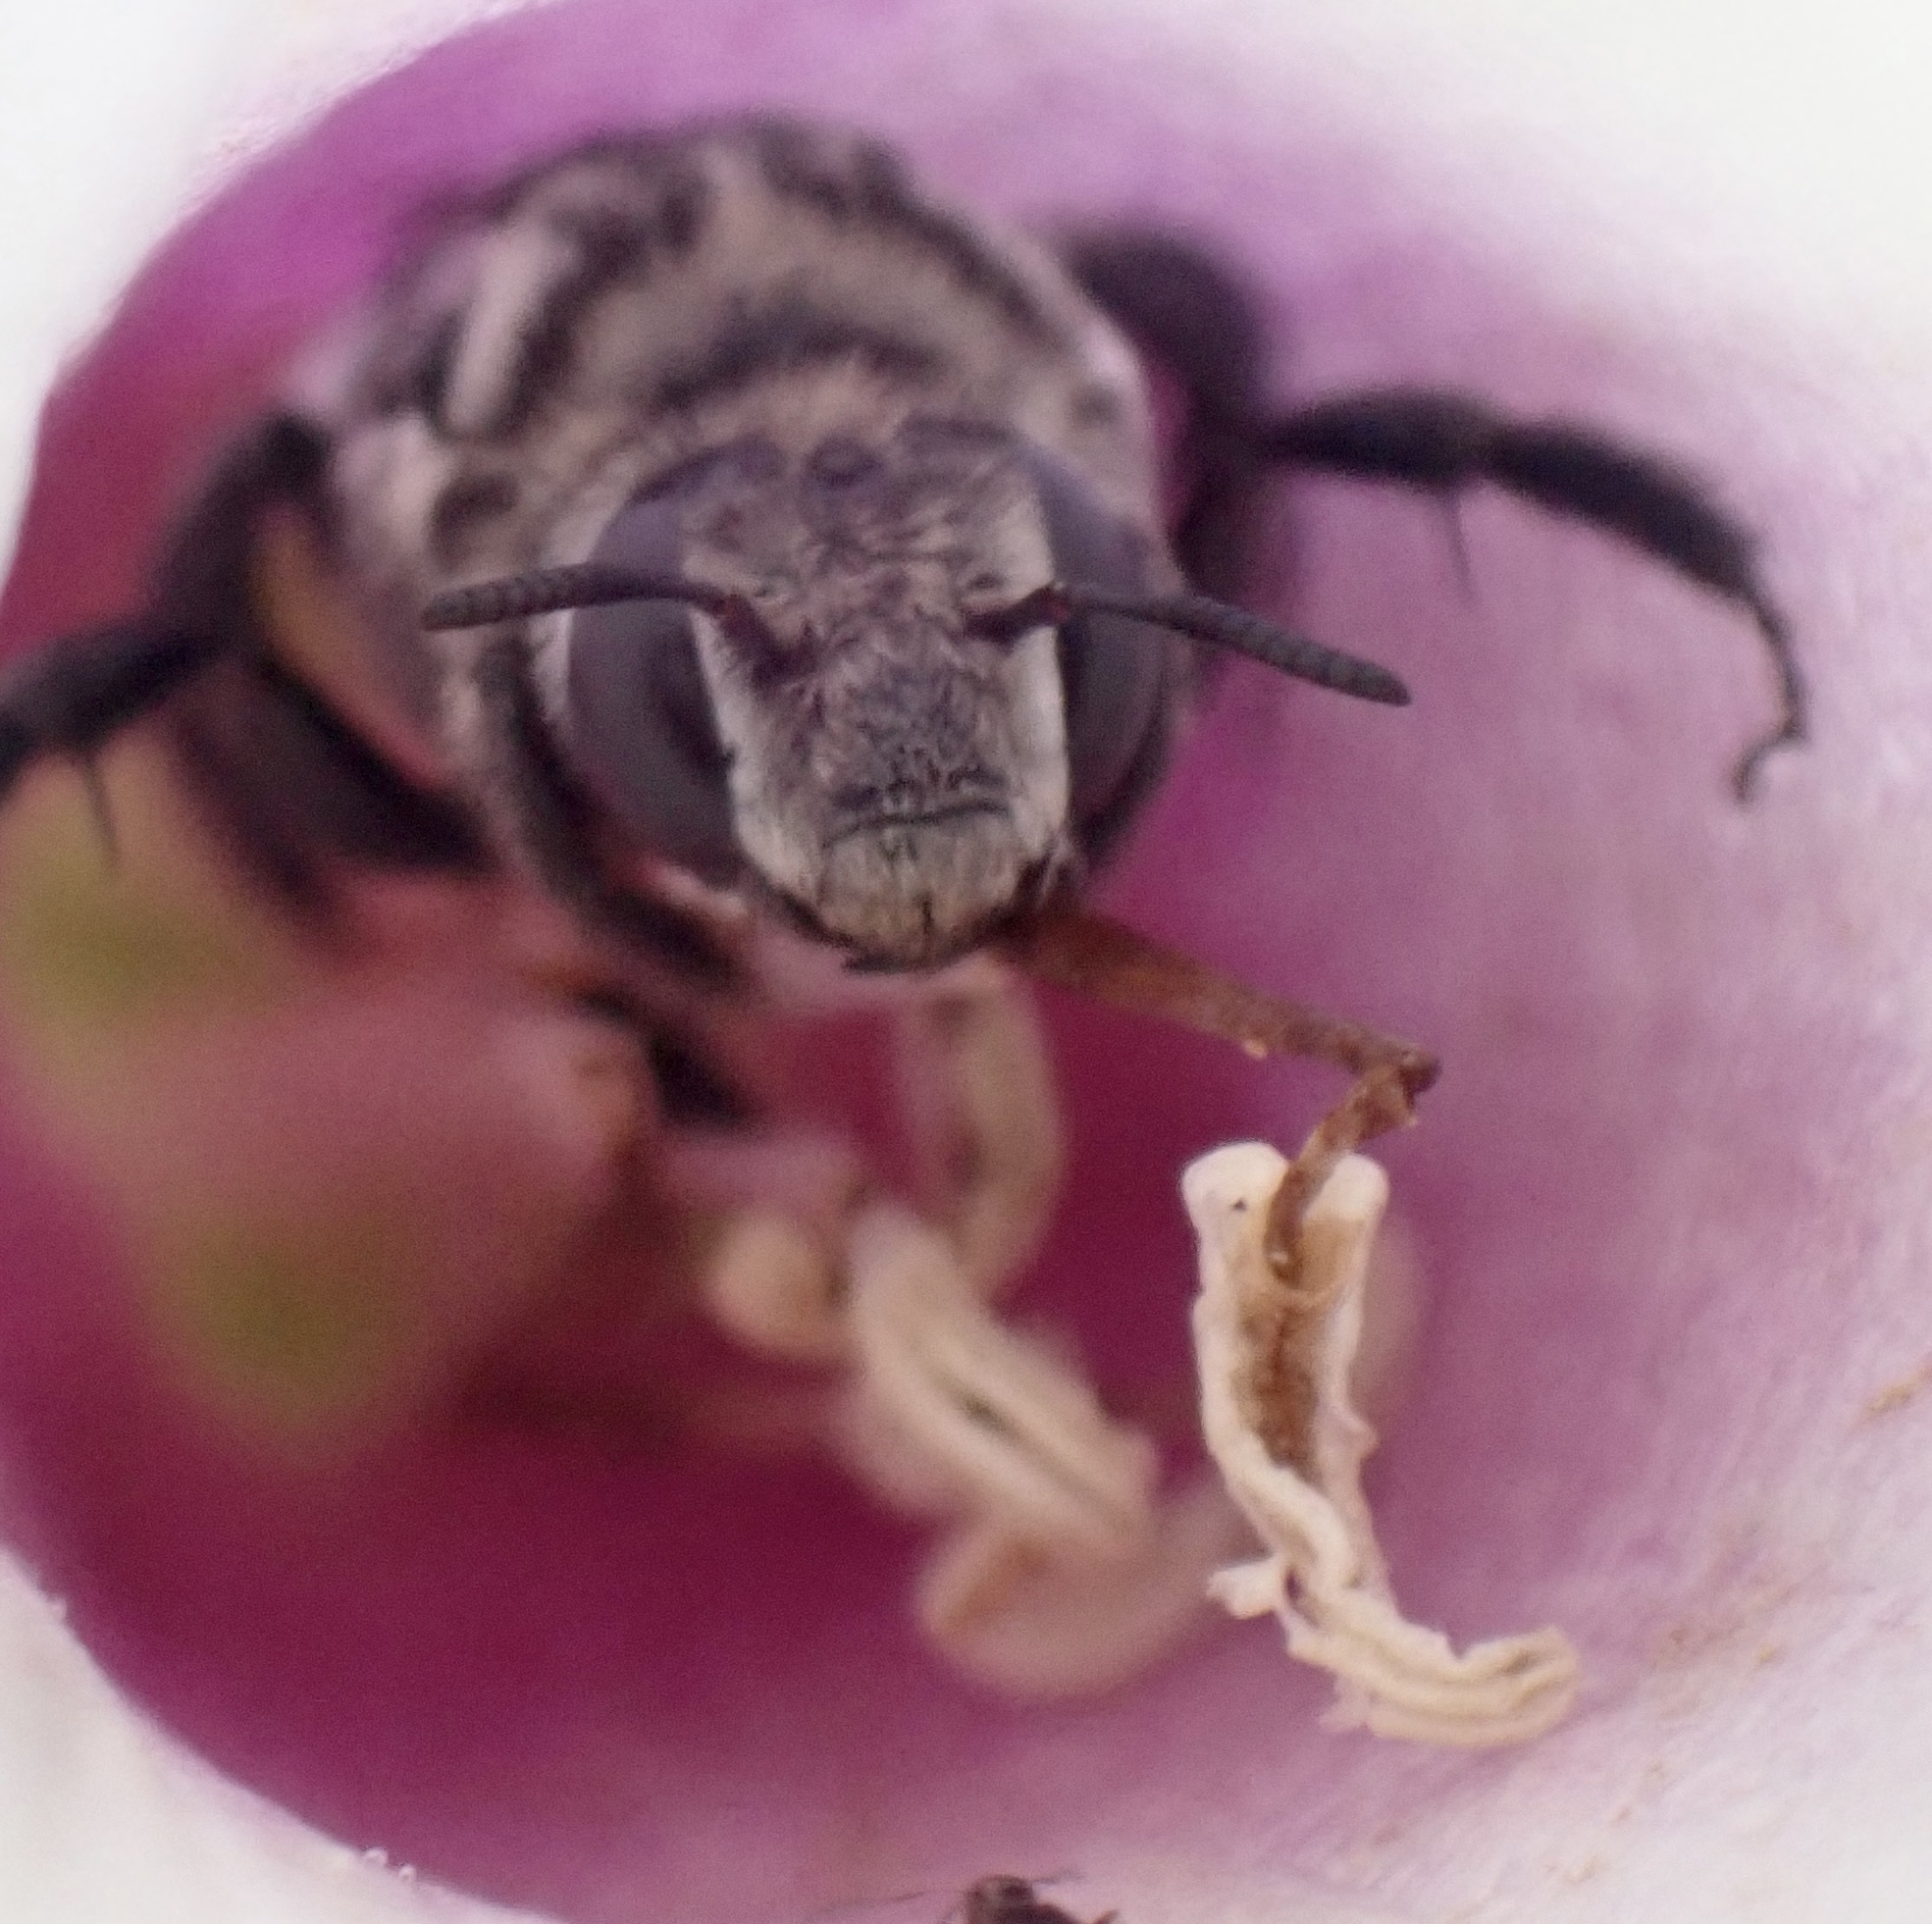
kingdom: Animalia
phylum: Arthropoda
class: Insecta
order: Hymenoptera
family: Apidae
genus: Melitoma
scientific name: Melitoma taurea
